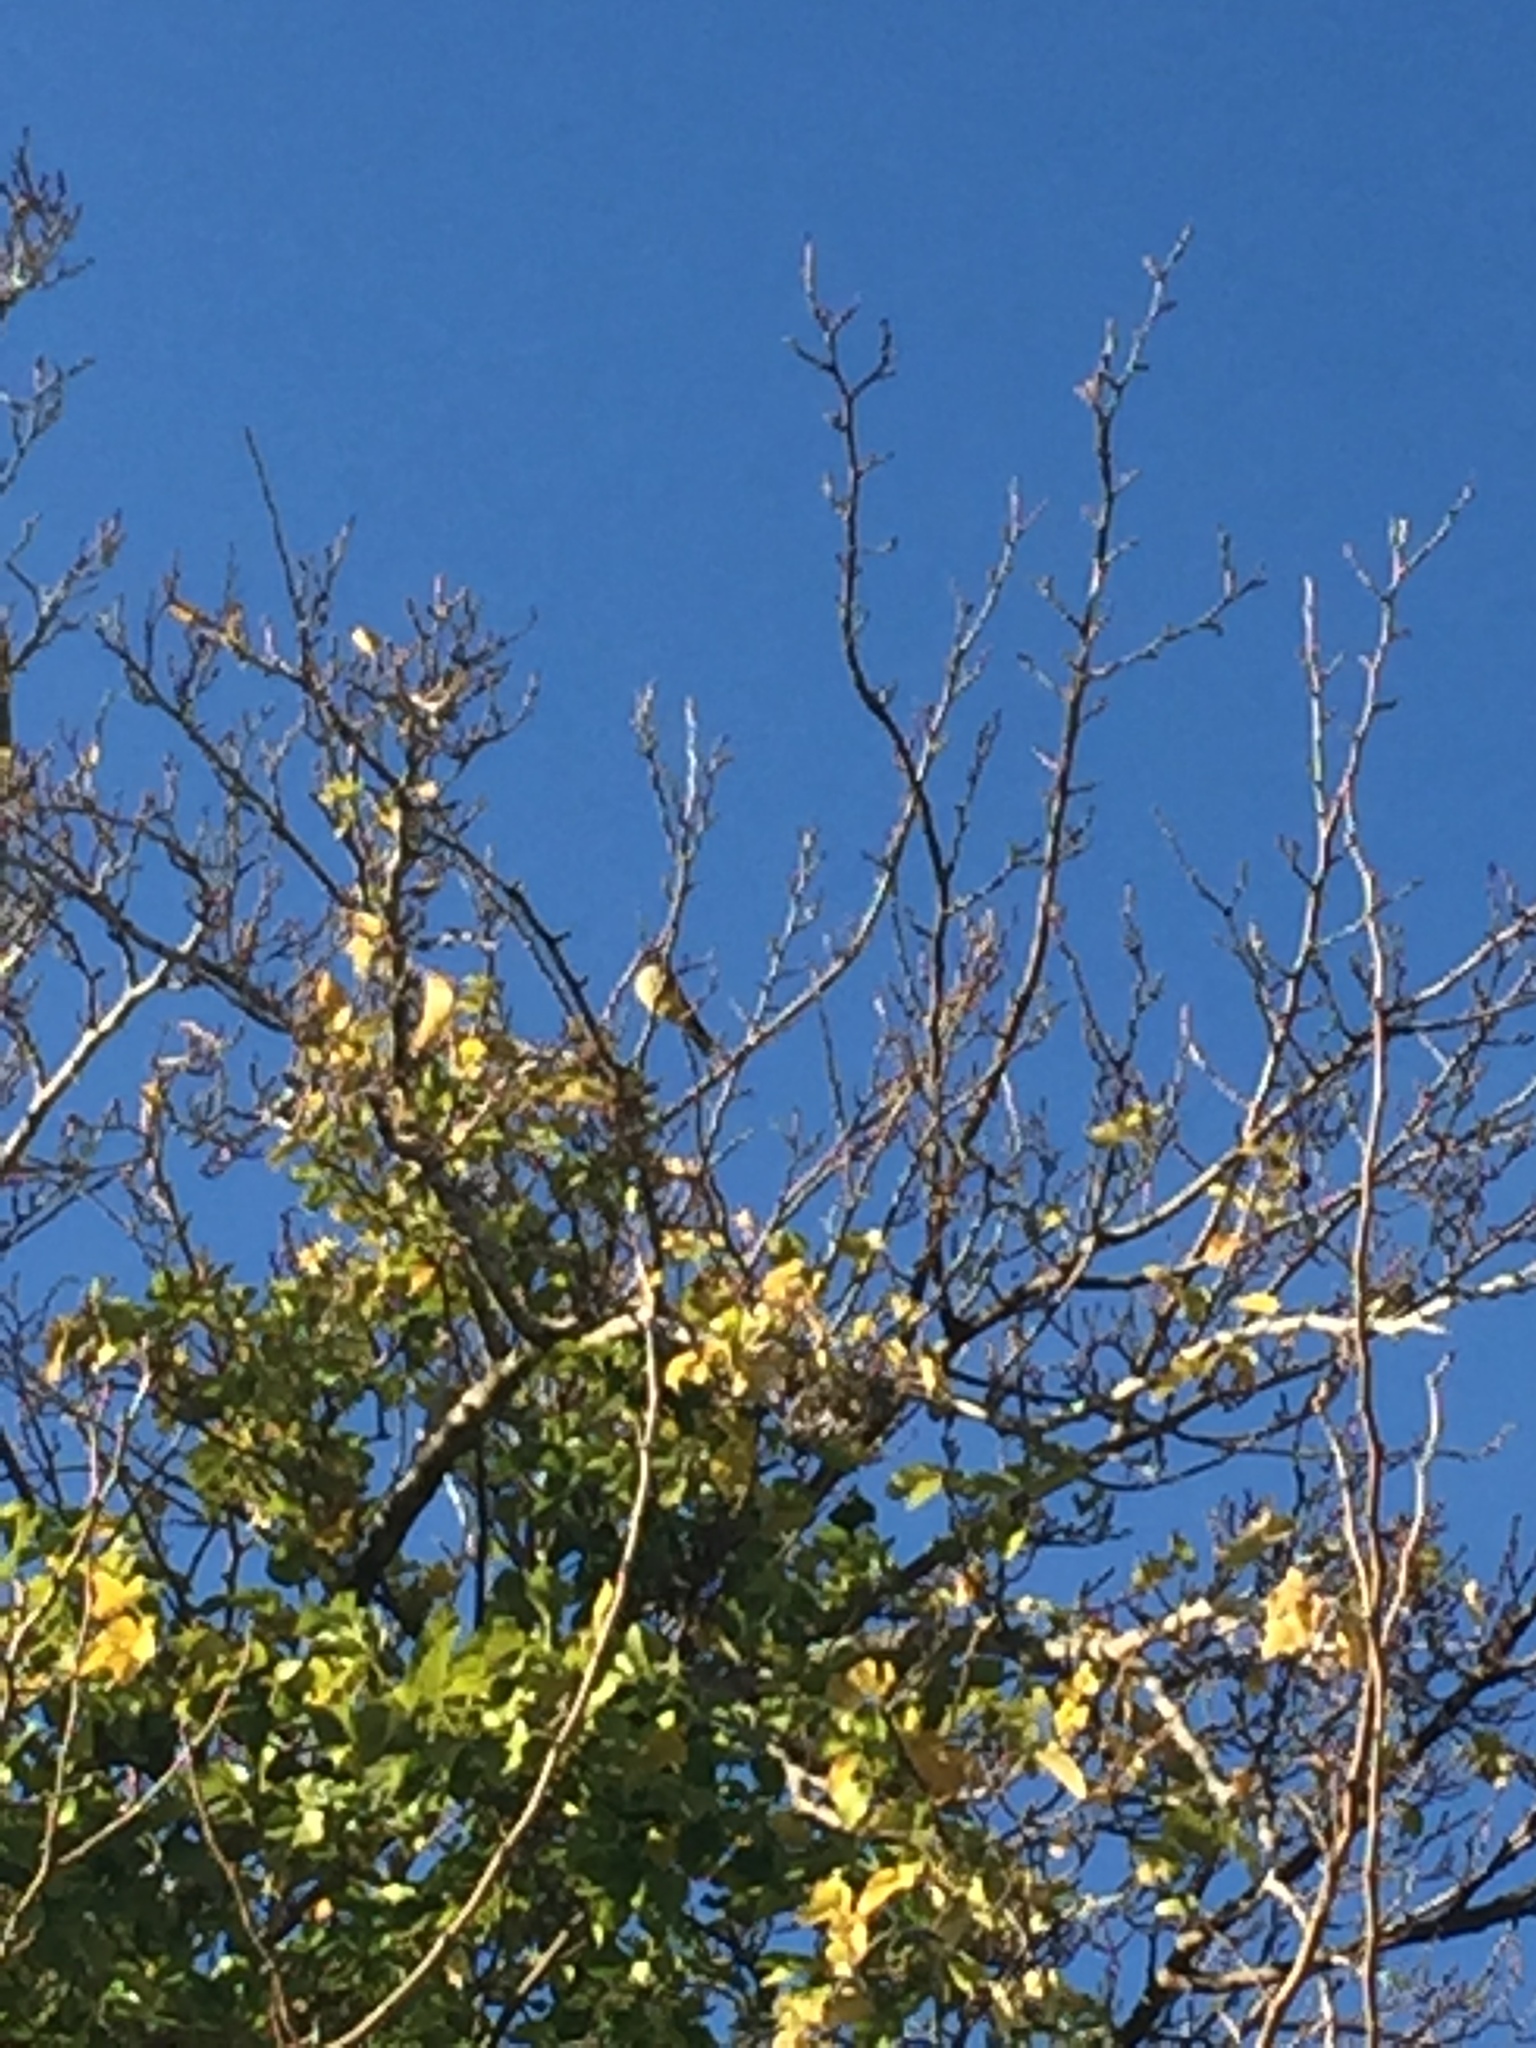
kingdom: Animalia
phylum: Chordata
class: Aves
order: Passeriformes
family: Tyrannidae
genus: Tyrannus
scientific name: Tyrannus vociferans
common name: Cassin's kingbird
